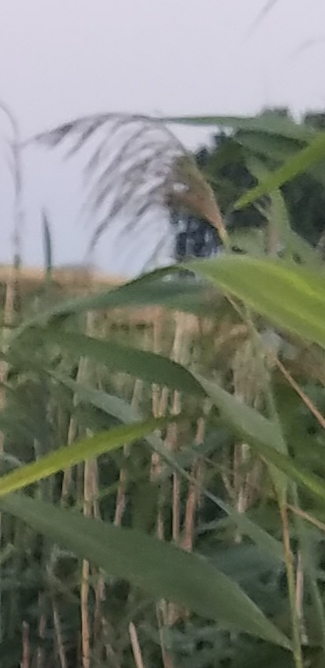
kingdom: Plantae
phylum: Tracheophyta
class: Liliopsida
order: Poales
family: Poaceae
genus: Phragmites
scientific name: Phragmites australis
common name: Common reed
